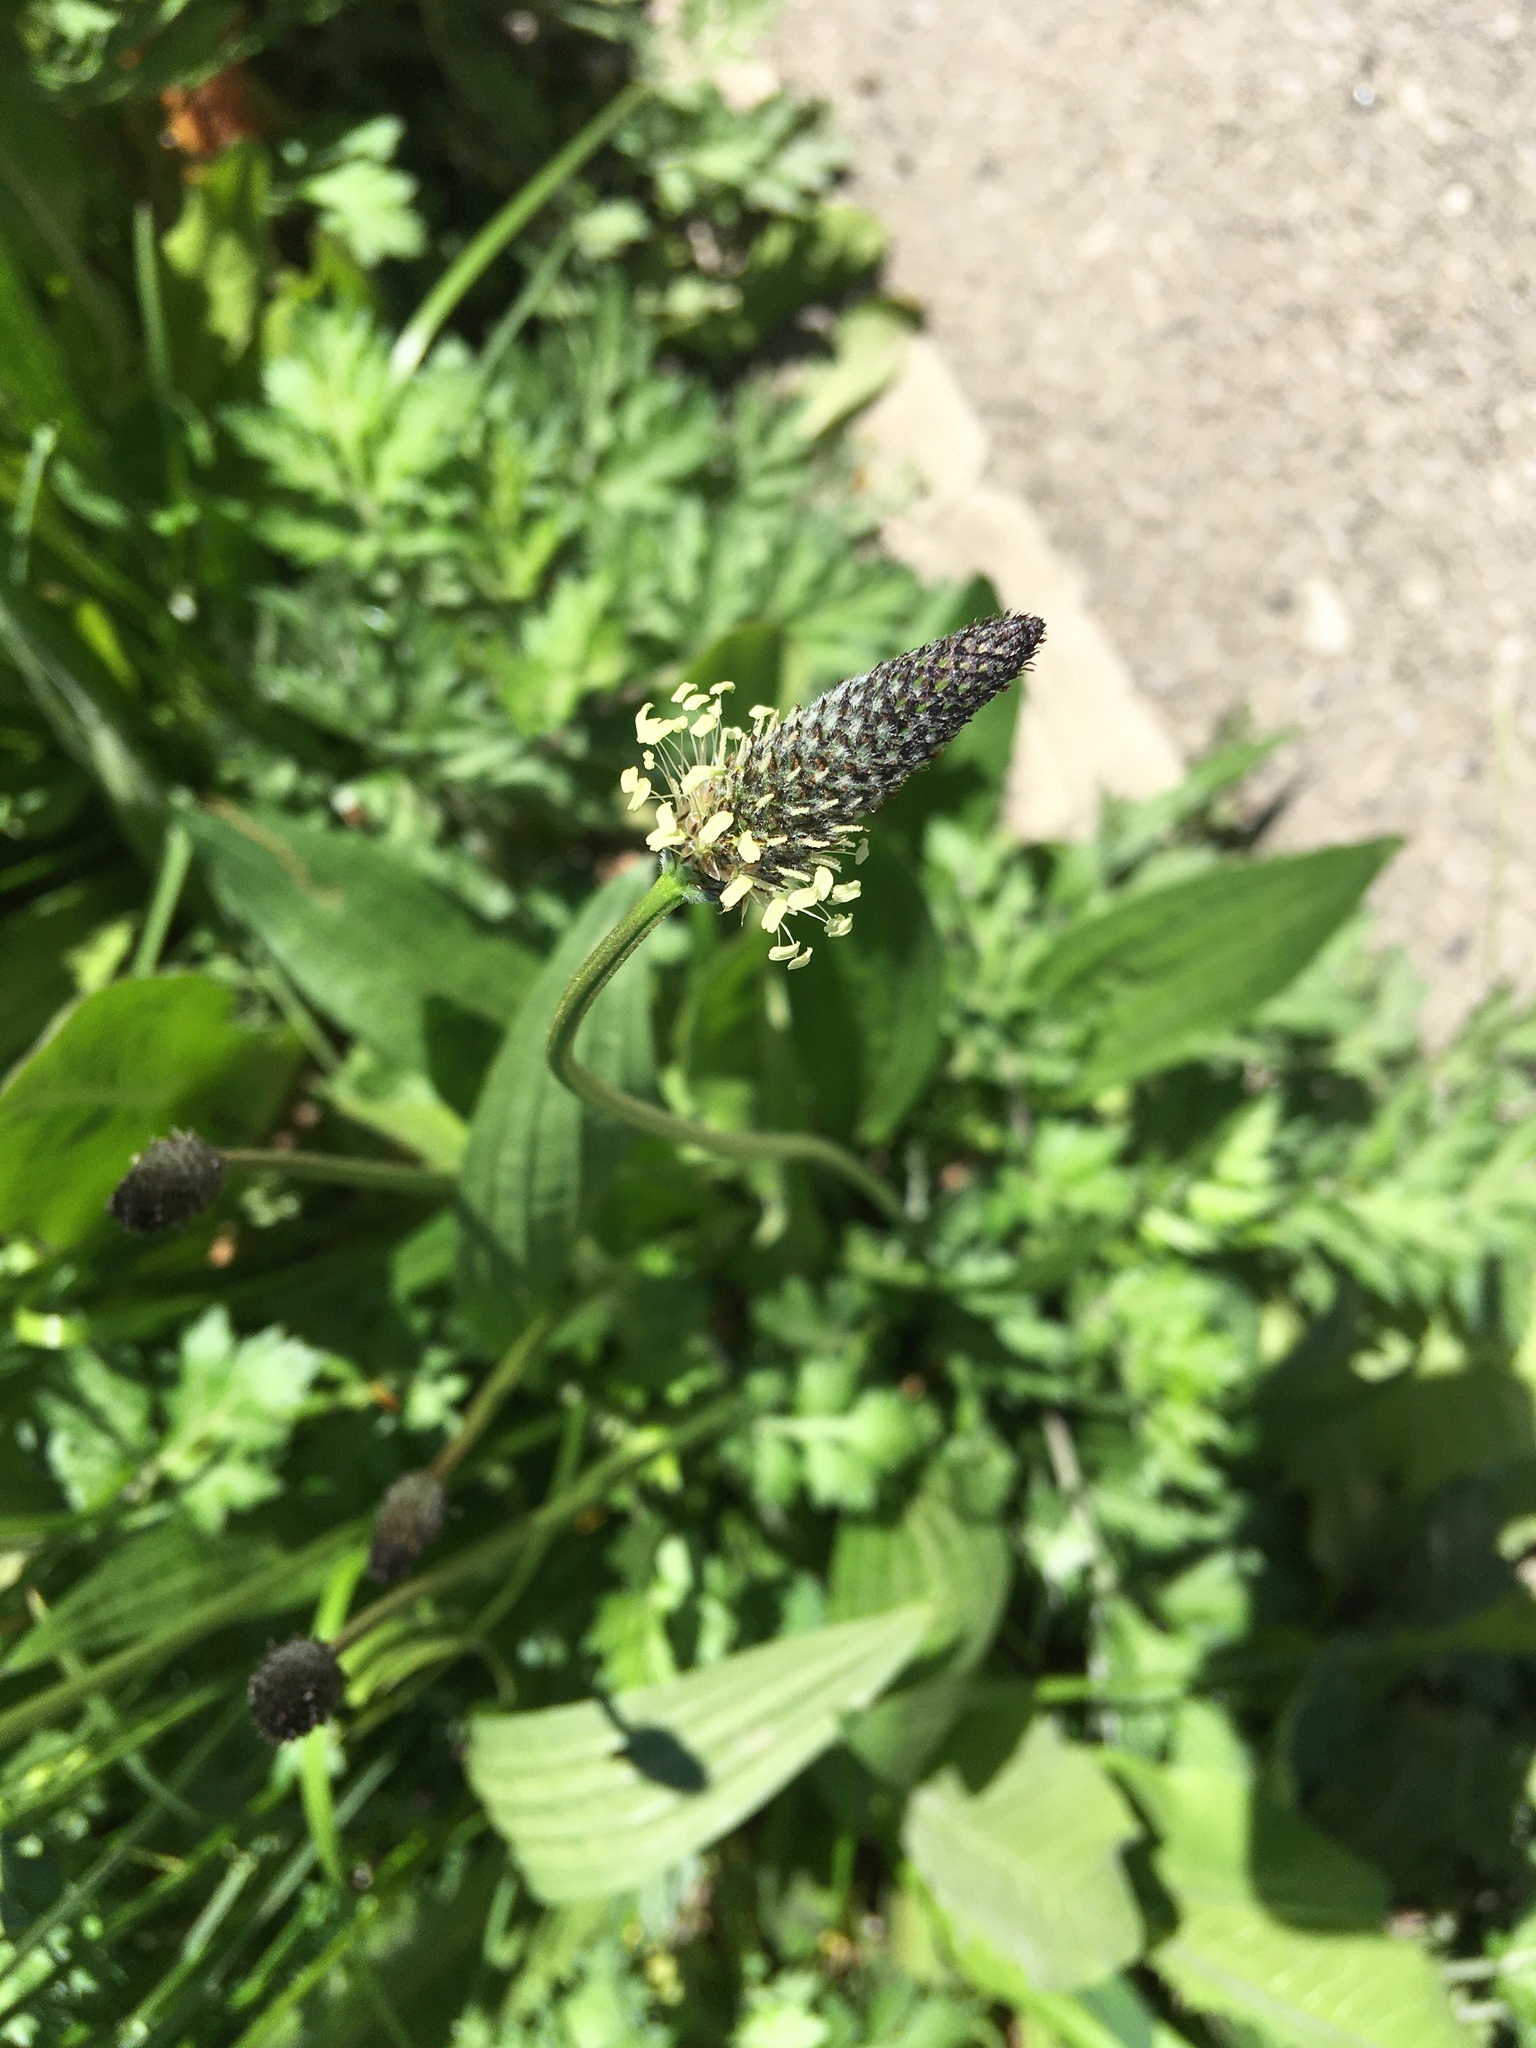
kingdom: Plantae
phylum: Tracheophyta
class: Magnoliopsida
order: Lamiales
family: Plantaginaceae
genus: Plantago
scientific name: Plantago lanceolata
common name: Ribwort plantain
